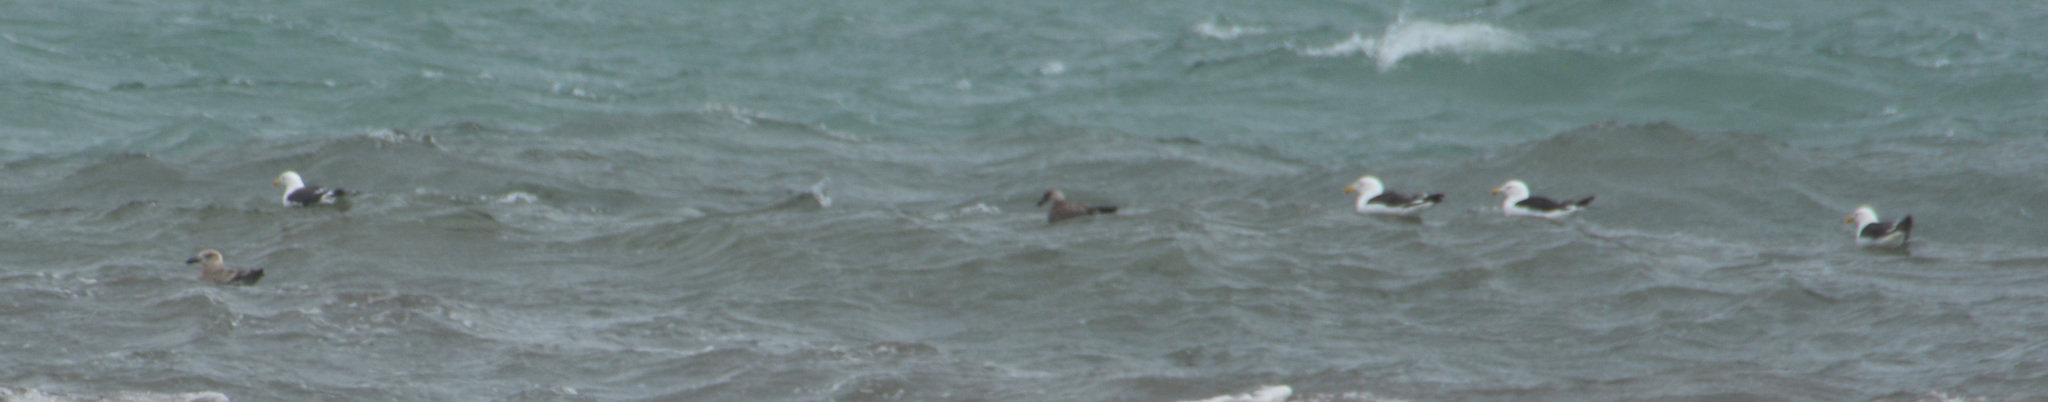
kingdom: Animalia
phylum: Chordata
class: Aves
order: Charadriiformes
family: Laridae
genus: Larus
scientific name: Larus dominicanus
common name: Kelp gull
